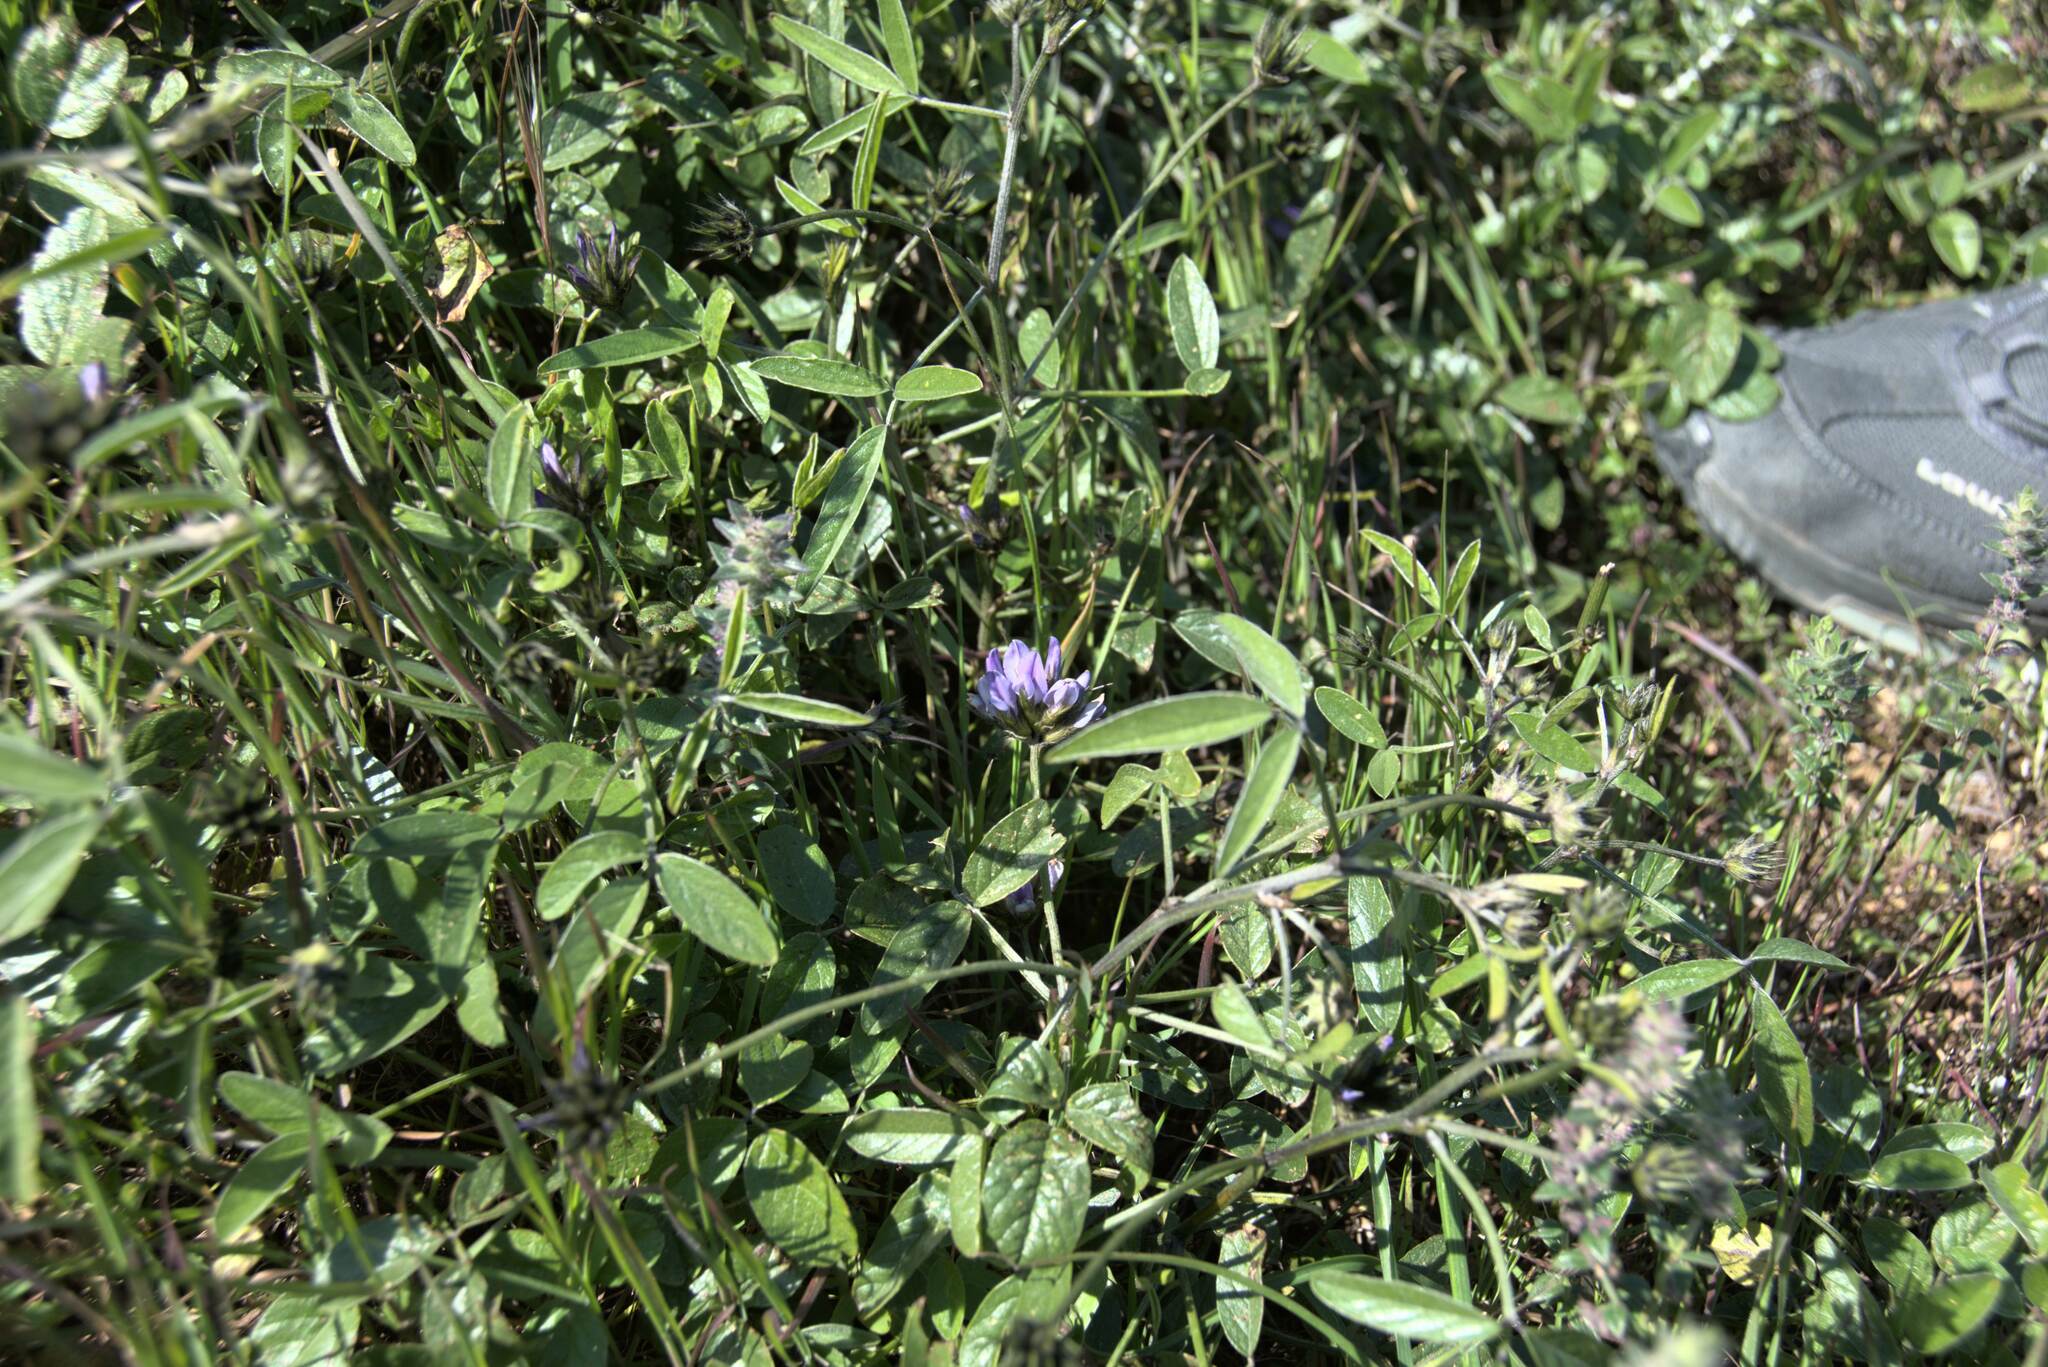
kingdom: Plantae
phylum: Tracheophyta
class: Magnoliopsida
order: Fabales
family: Fabaceae
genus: Bituminaria
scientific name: Bituminaria bituminosa
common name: Arabian pea
